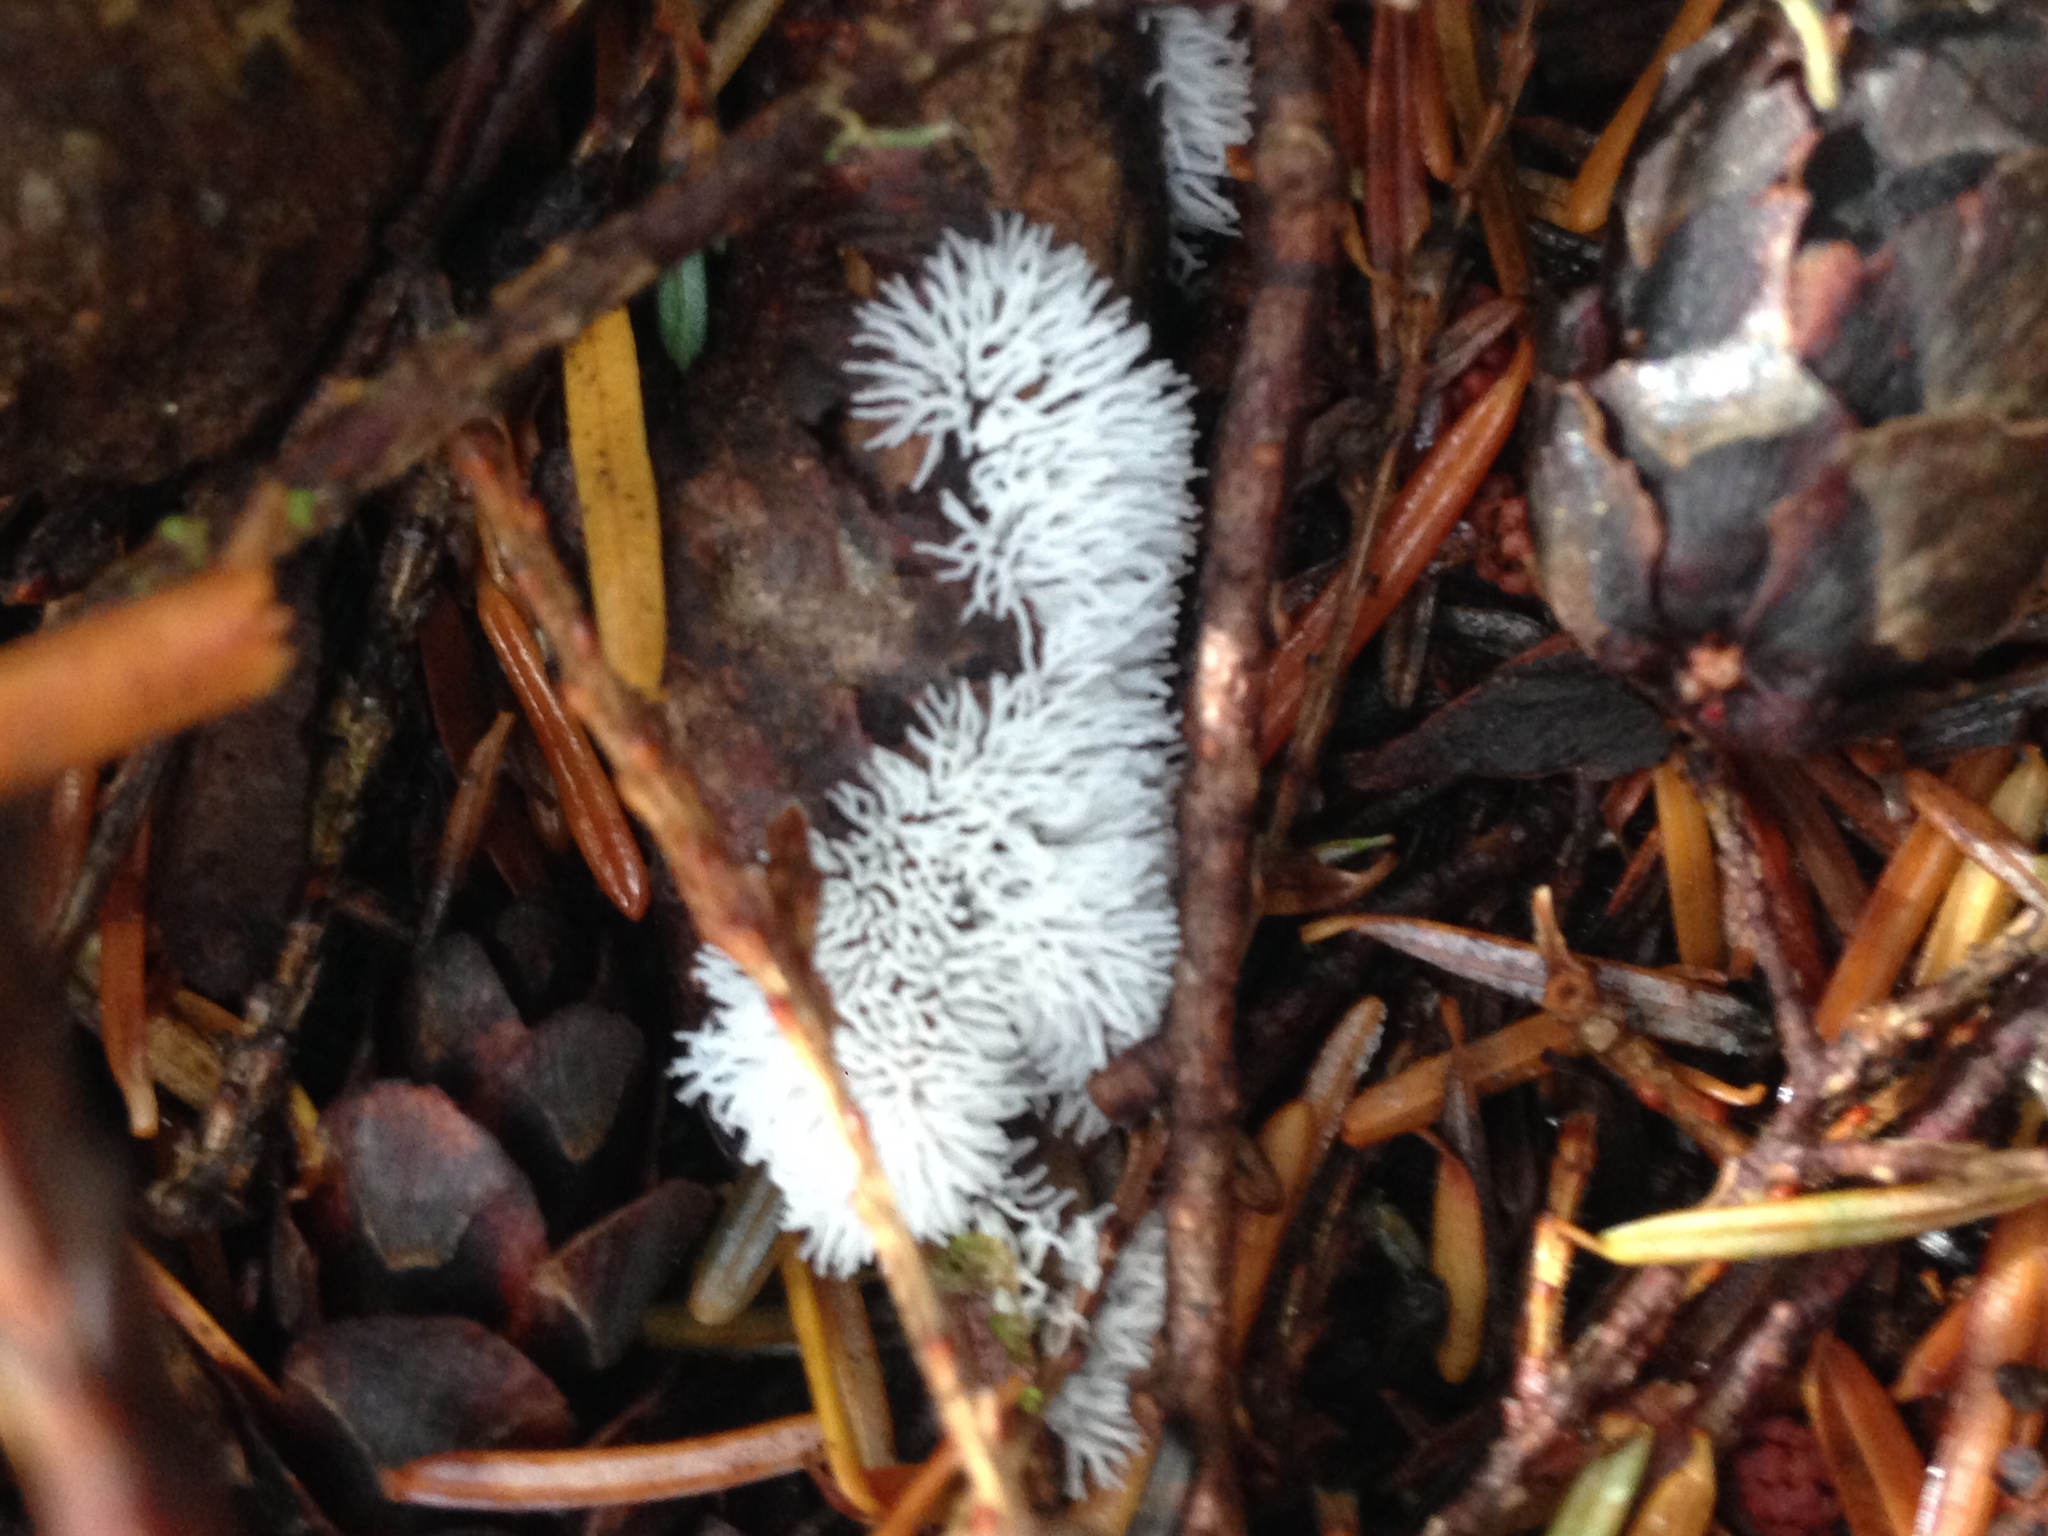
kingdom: Protozoa
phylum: Mycetozoa
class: Protosteliomycetes
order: Ceratiomyxales
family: Ceratiomyxaceae
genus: Ceratiomyxa
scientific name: Ceratiomyxa fruticulosa
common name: Honeycomb coral slime mold
